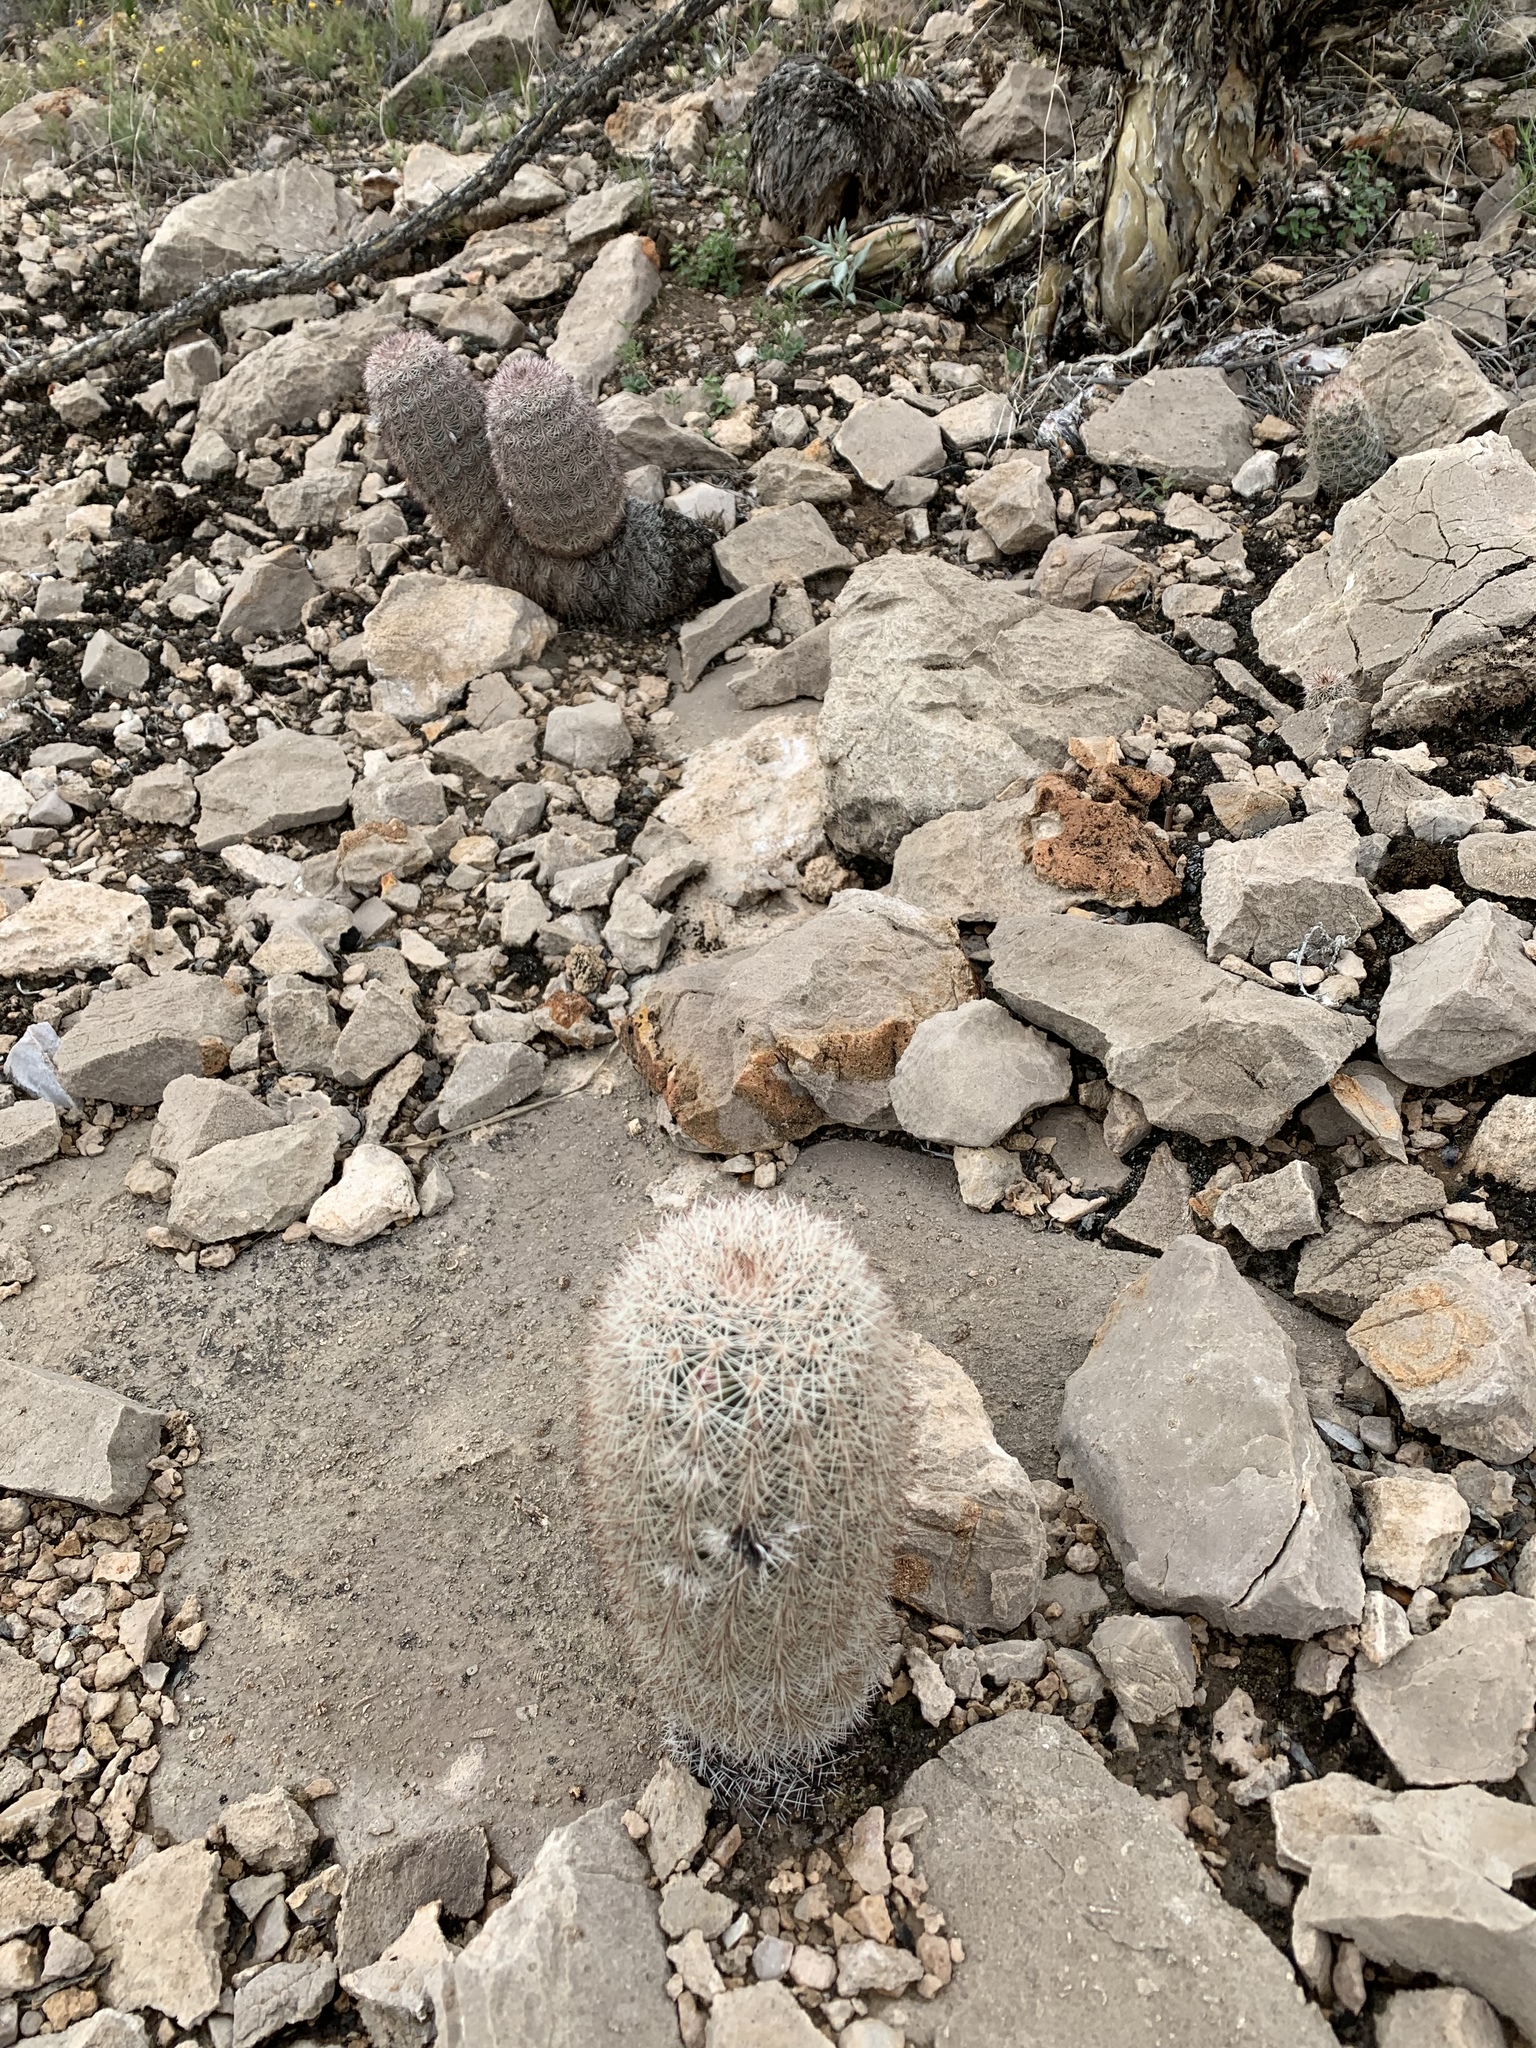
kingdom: Plantae
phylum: Tracheophyta
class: Magnoliopsida
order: Caryophyllales
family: Cactaceae
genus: Echinocereus
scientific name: Echinocereus dasyacanthus
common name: Spiny hedgehog cactus
